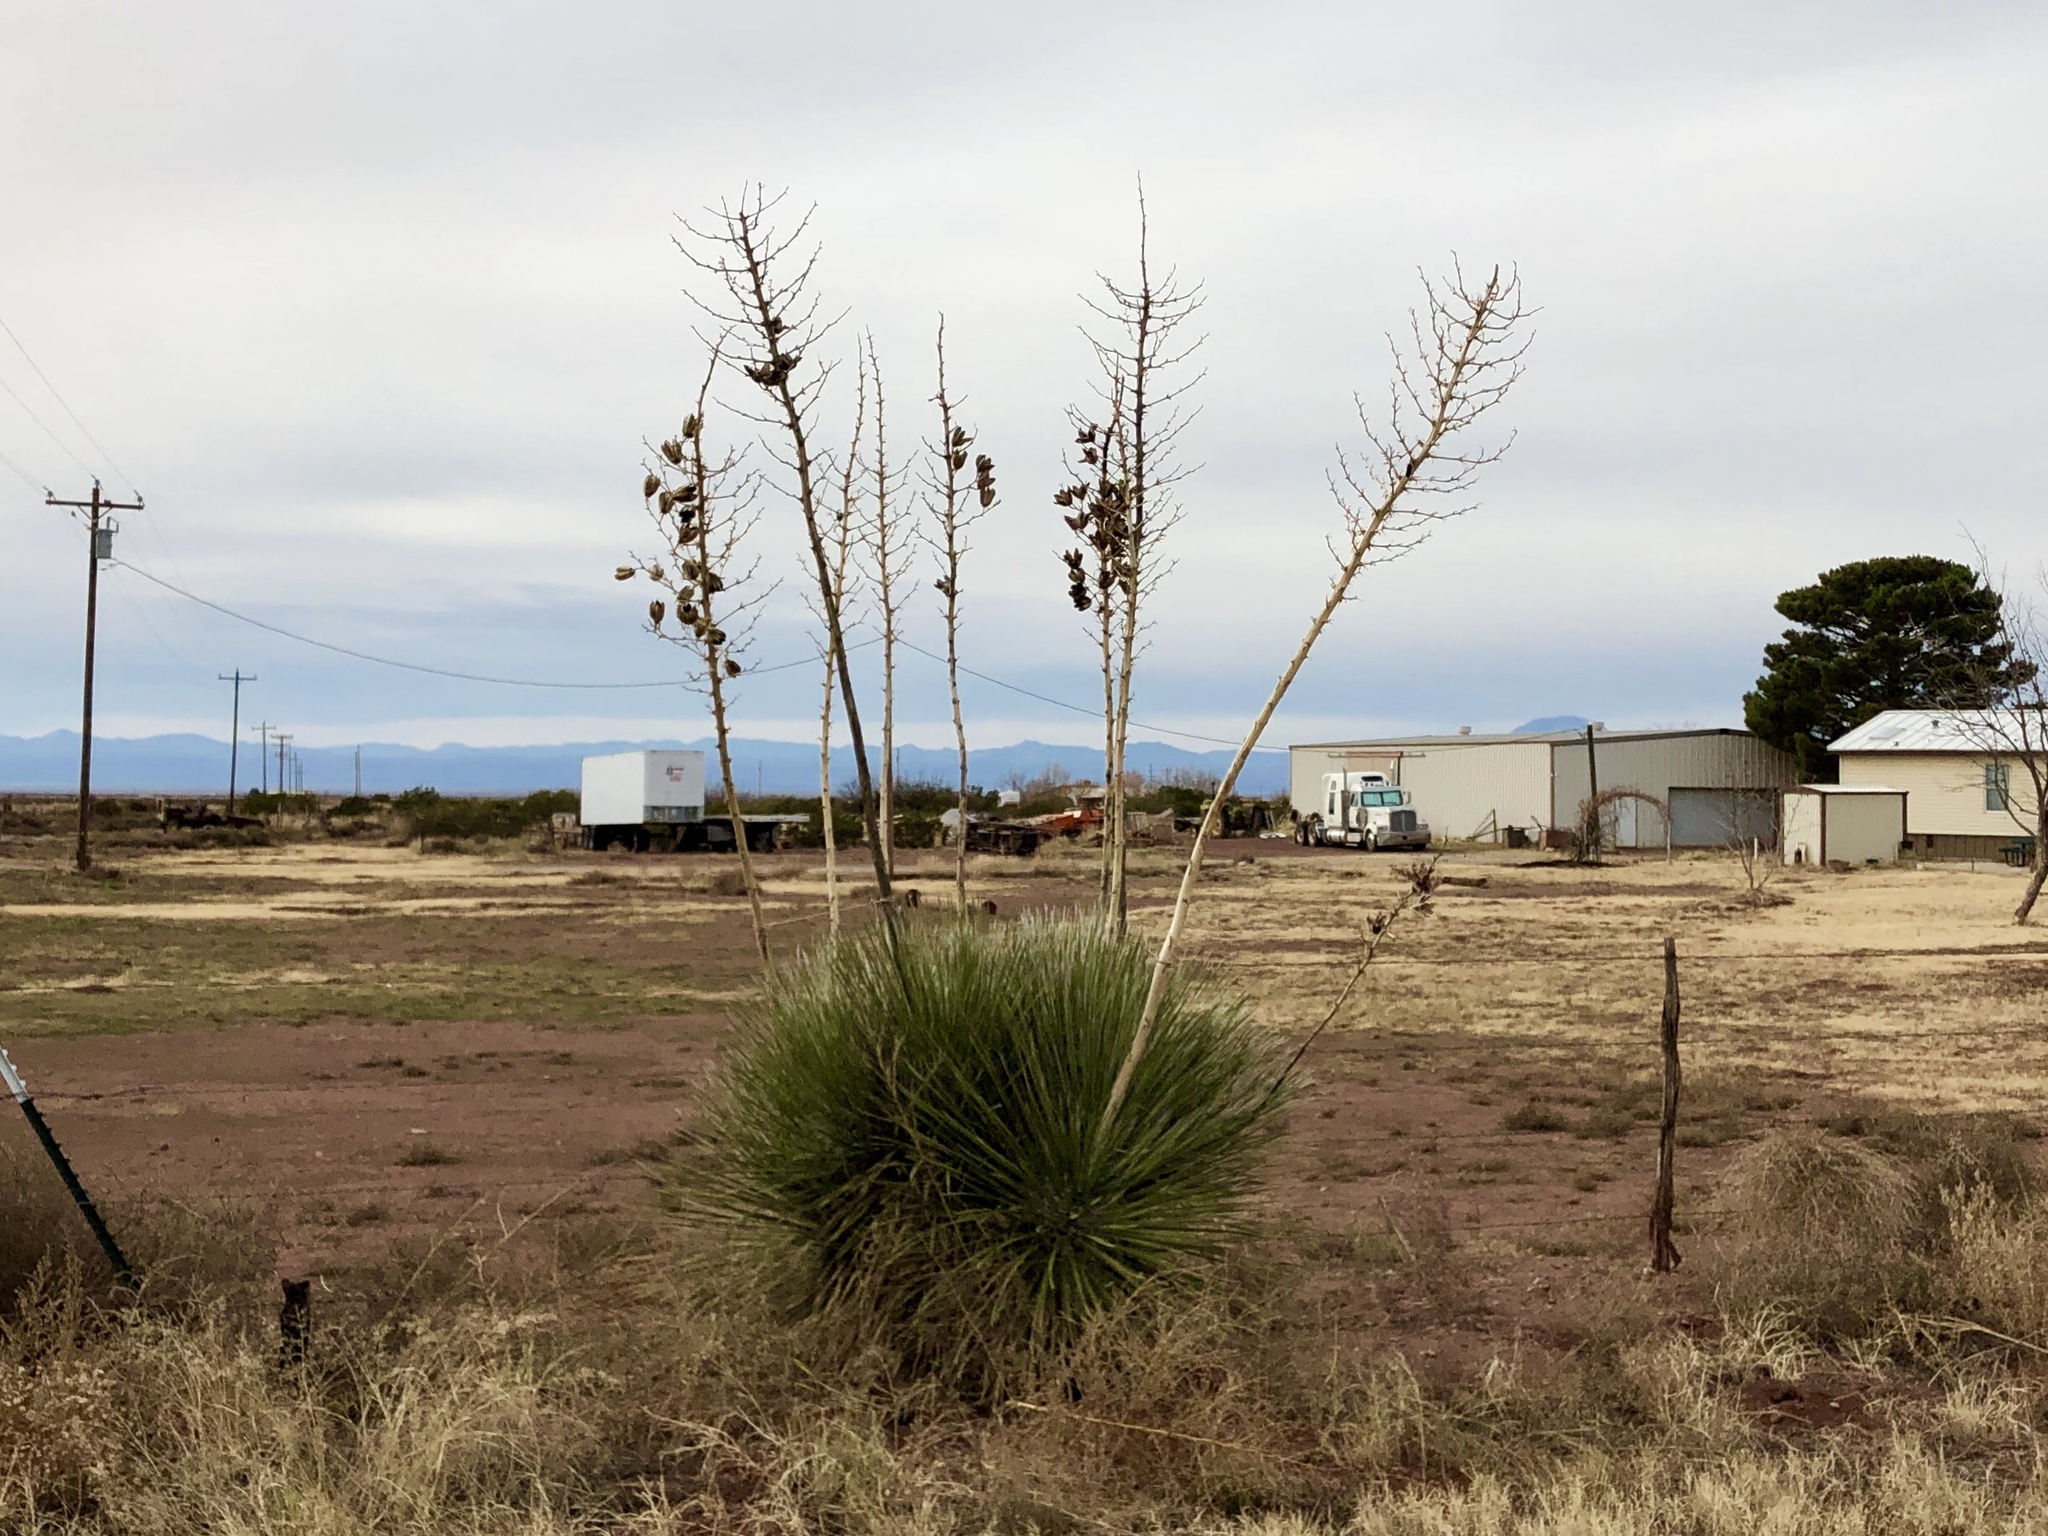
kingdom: Plantae
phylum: Tracheophyta
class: Liliopsida
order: Asparagales
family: Asparagaceae
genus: Yucca
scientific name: Yucca elata
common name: Palmella
